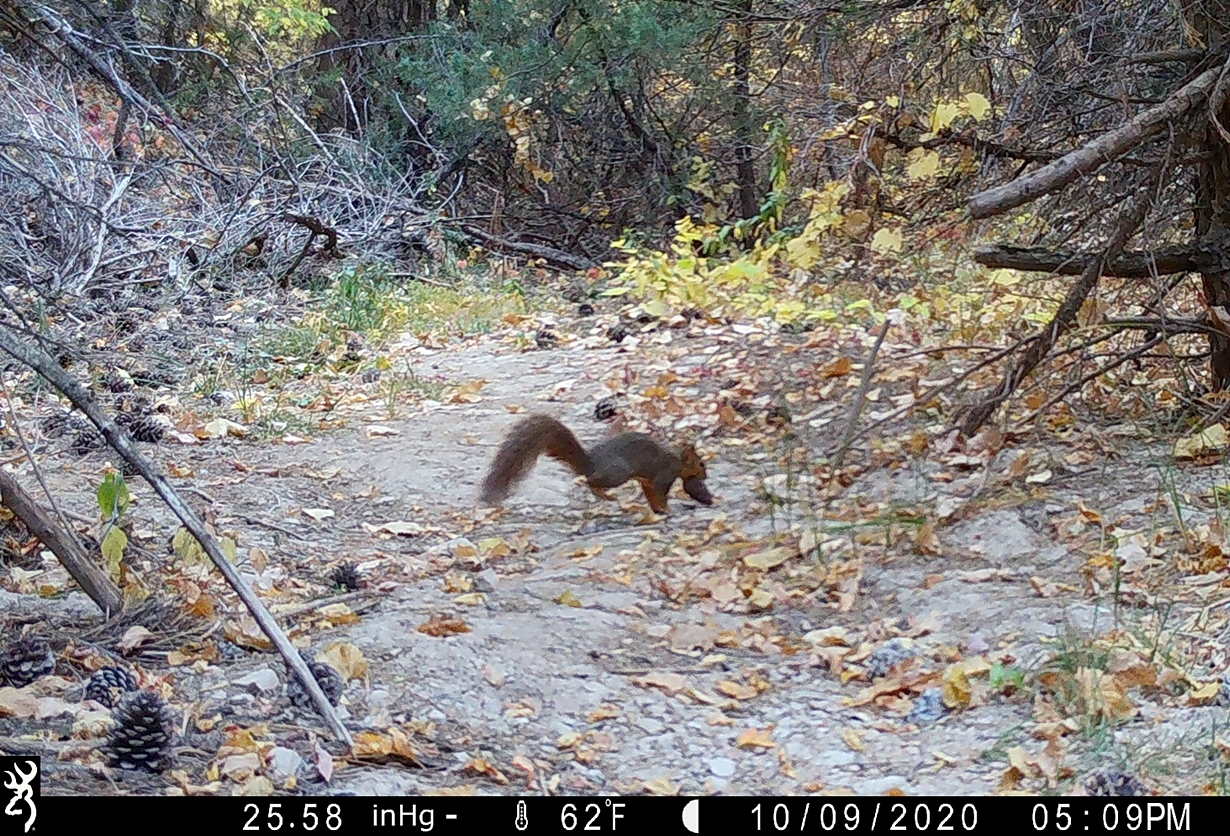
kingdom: Animalia
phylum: Chordata
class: Mammalia
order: Rodentia
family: Sciuridae
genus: Sciurus
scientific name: Sciurus niger
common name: Fox squirrel
